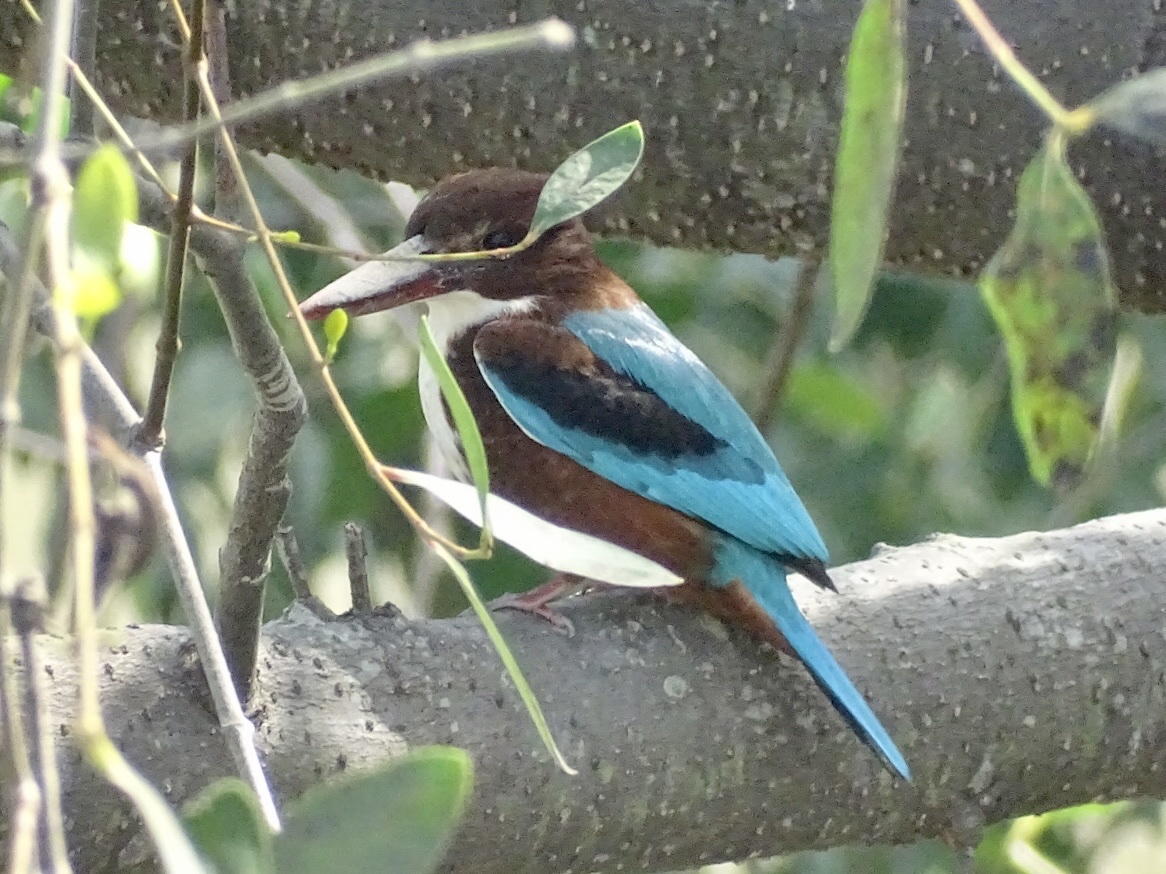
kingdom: Animalia
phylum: Chordata
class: Aves
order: Coraciiformes
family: Alcedinidae
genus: Halcyon
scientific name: Halcyon smyrnensis
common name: White-throated kingfisher
